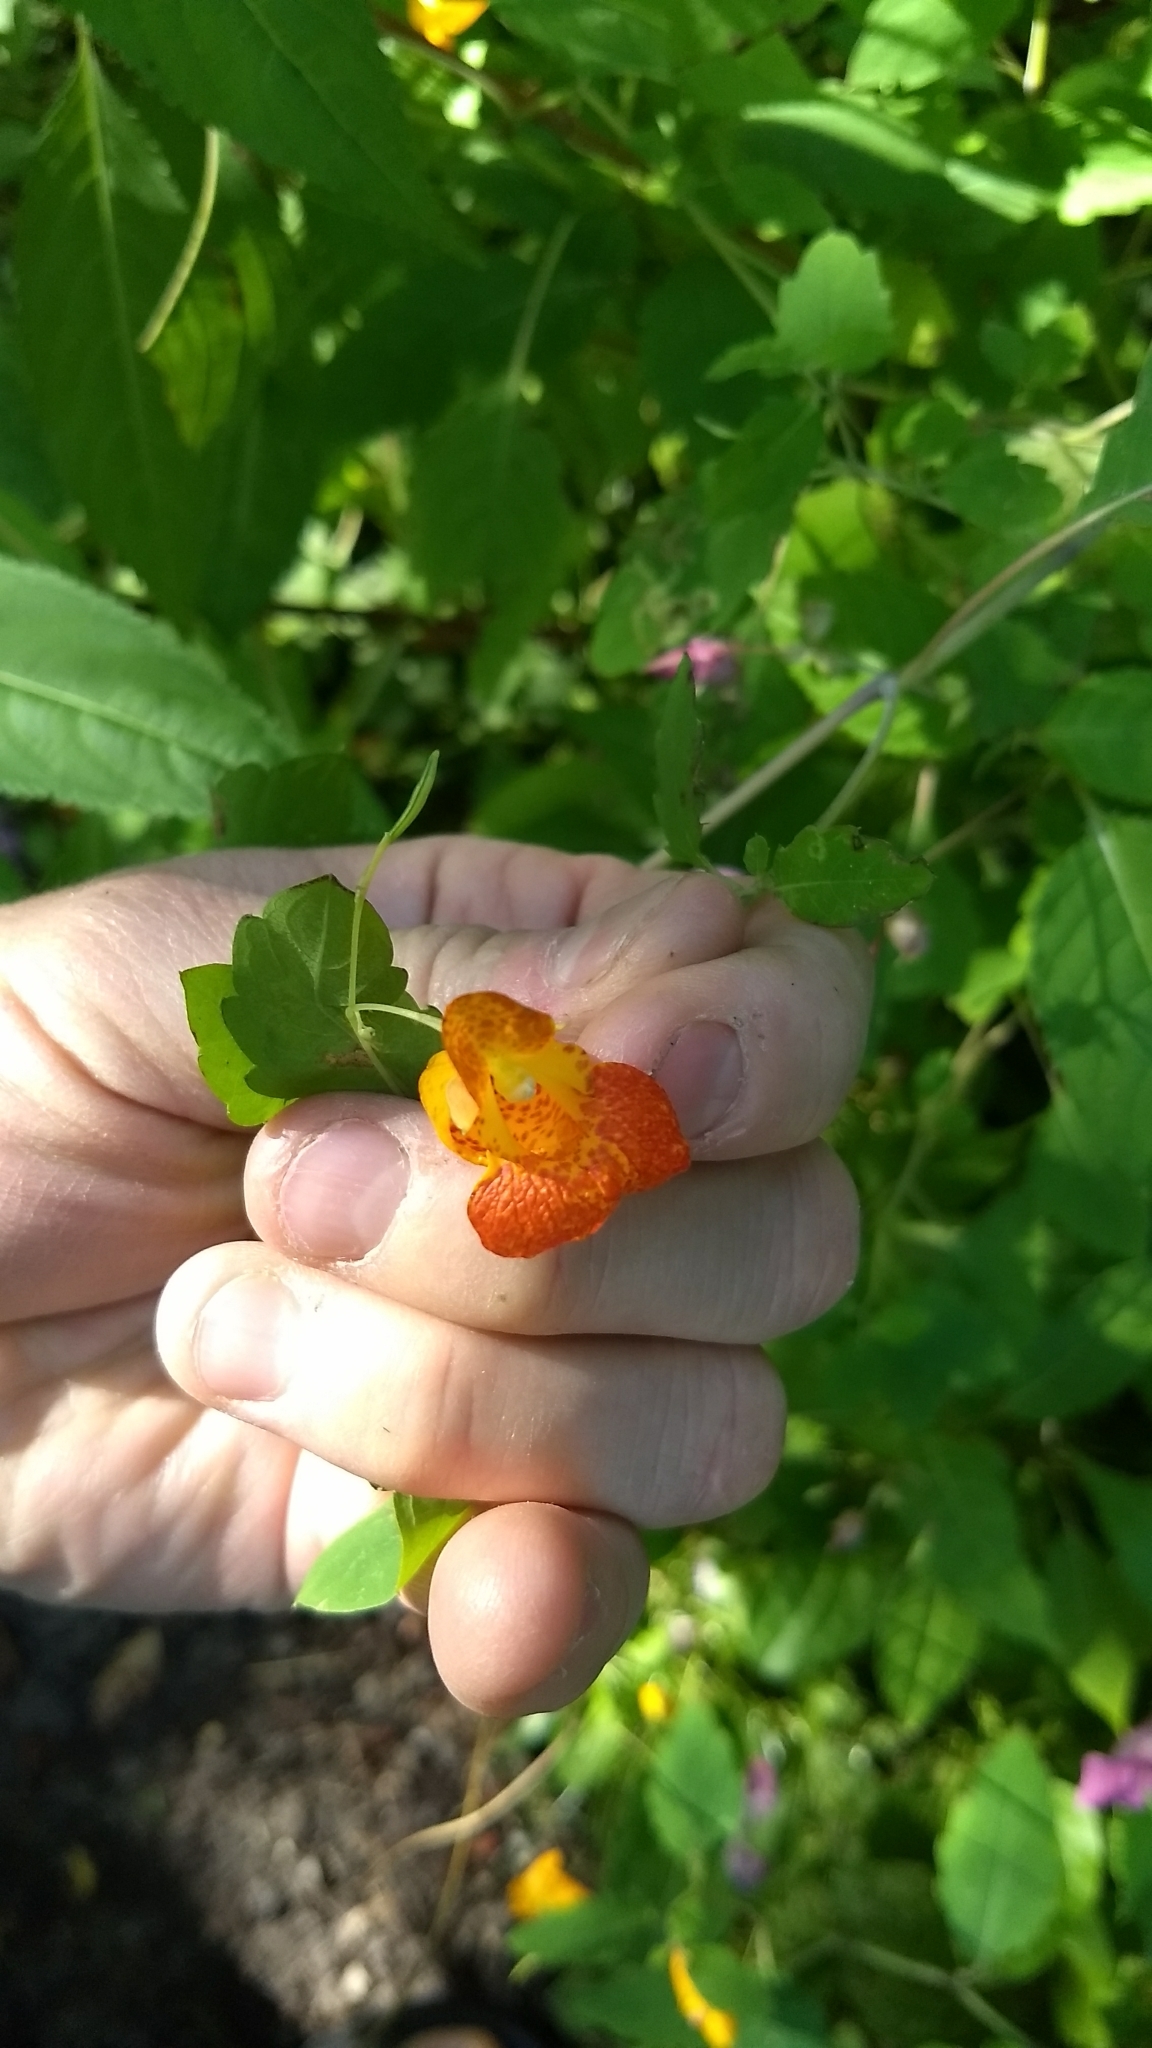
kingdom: Plantae
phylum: Tracheophyta
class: Magnoliopsida
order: Ericales
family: Balsaminaceae
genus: Impatiens
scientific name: Impatiens capensis
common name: Orange balsam
